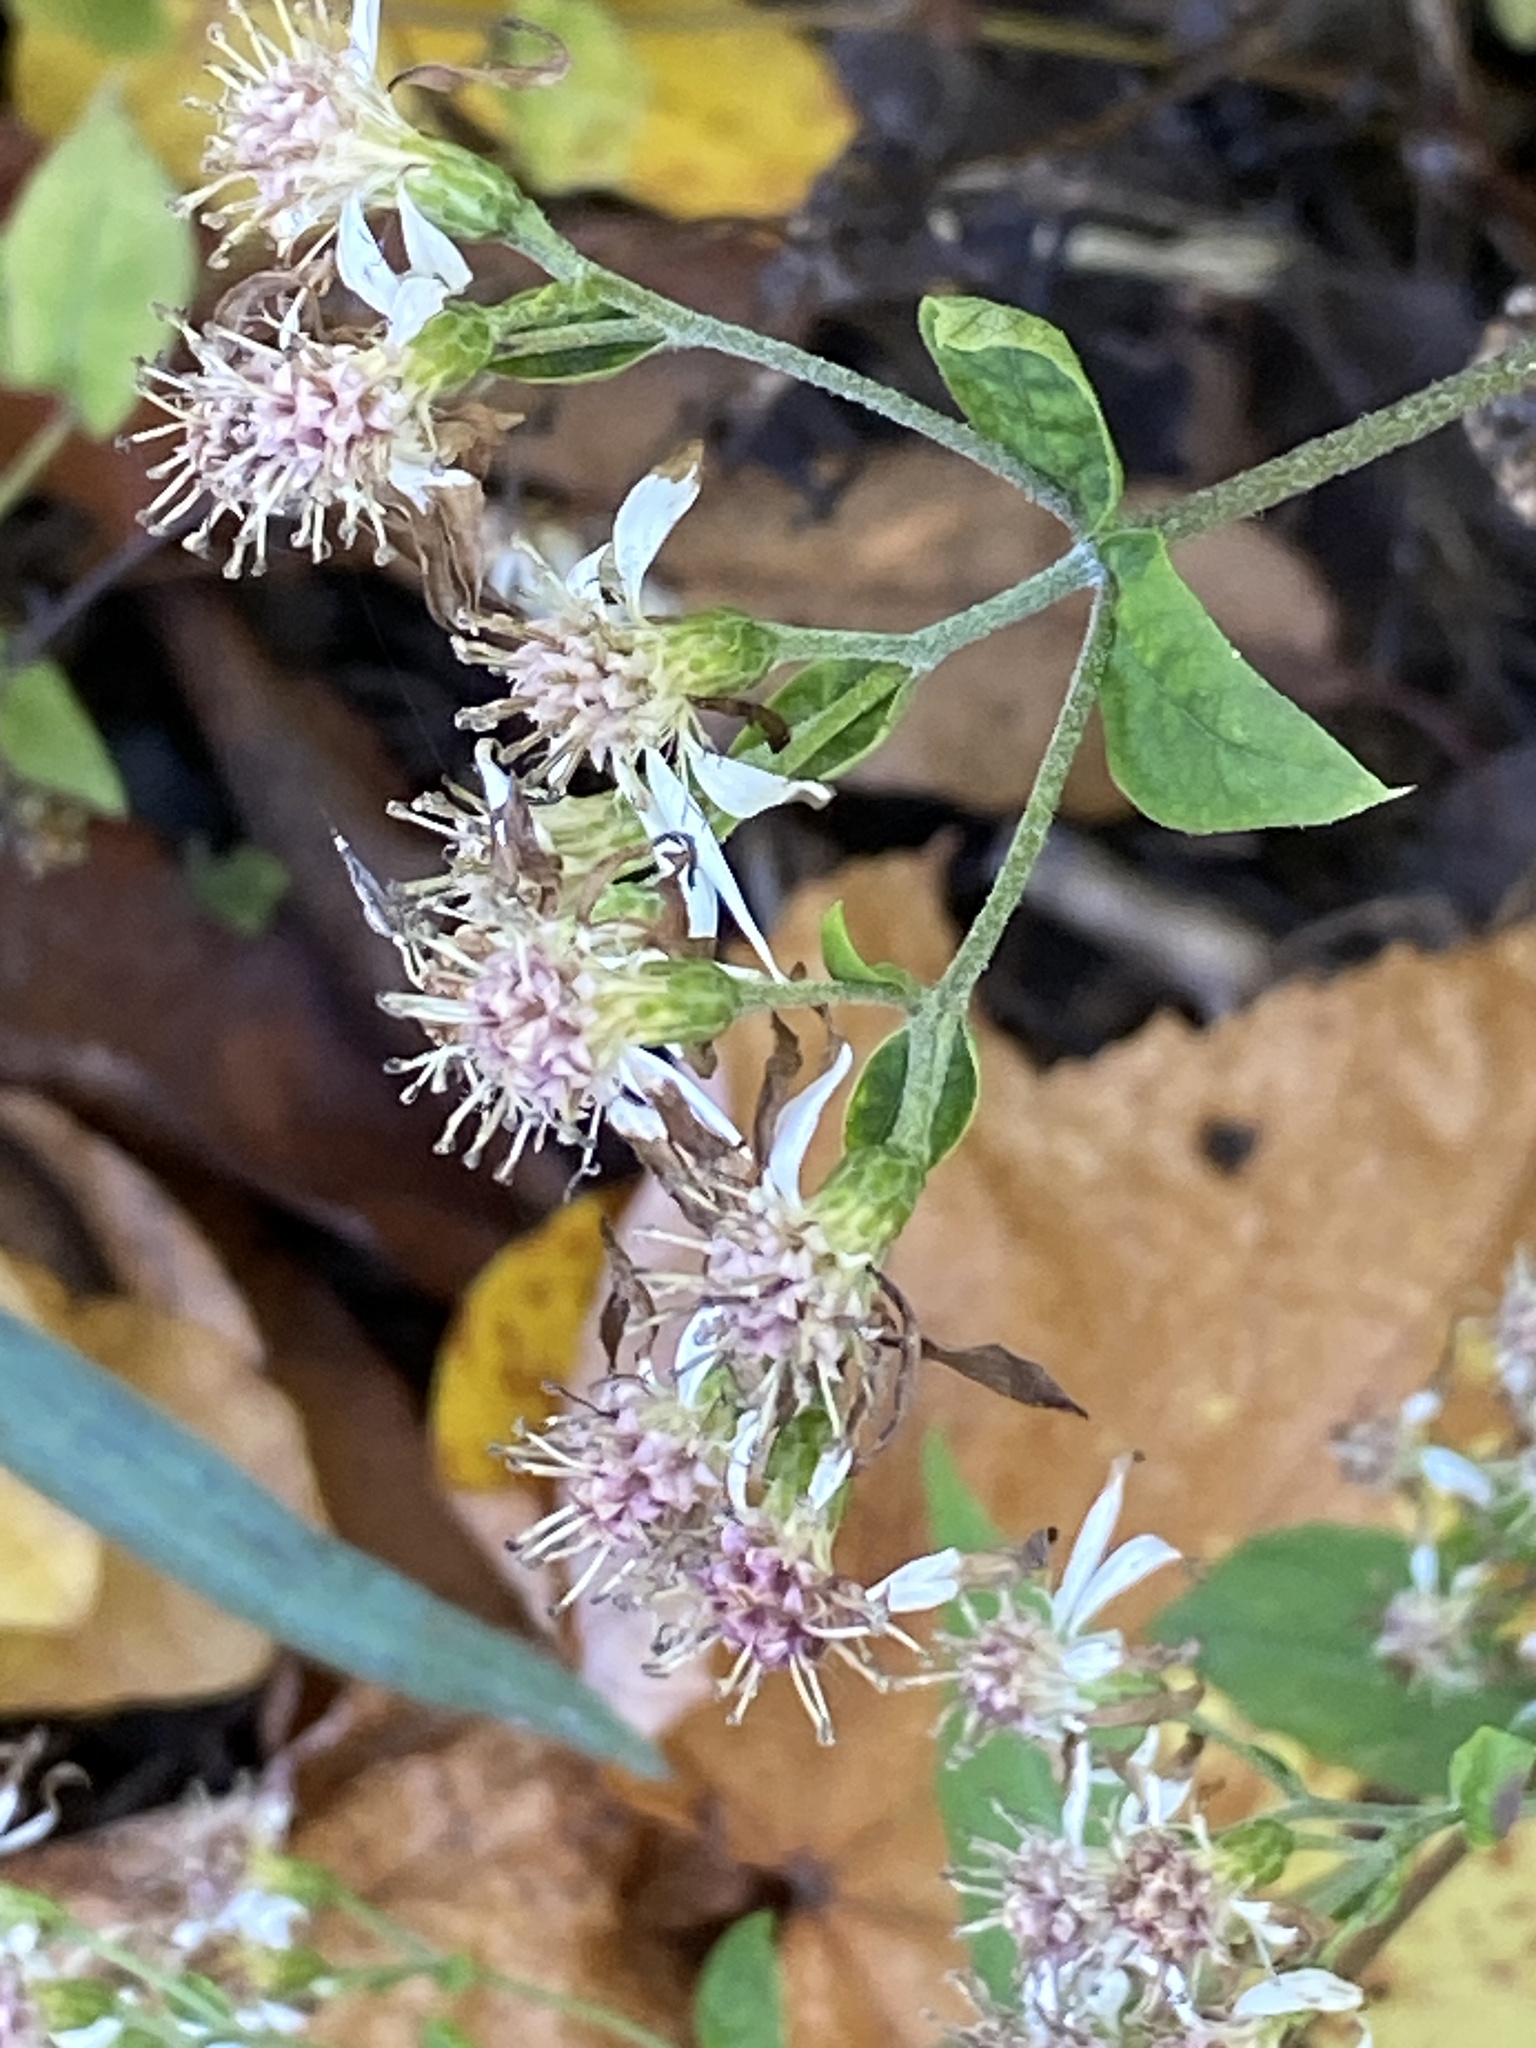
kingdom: Plantae
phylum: Tracheophyta
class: Magnoliopsida
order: Asterales
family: Asteraceae
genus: Symphyotrichum
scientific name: Symphyotrichum lateriflorum
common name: Calico aster
